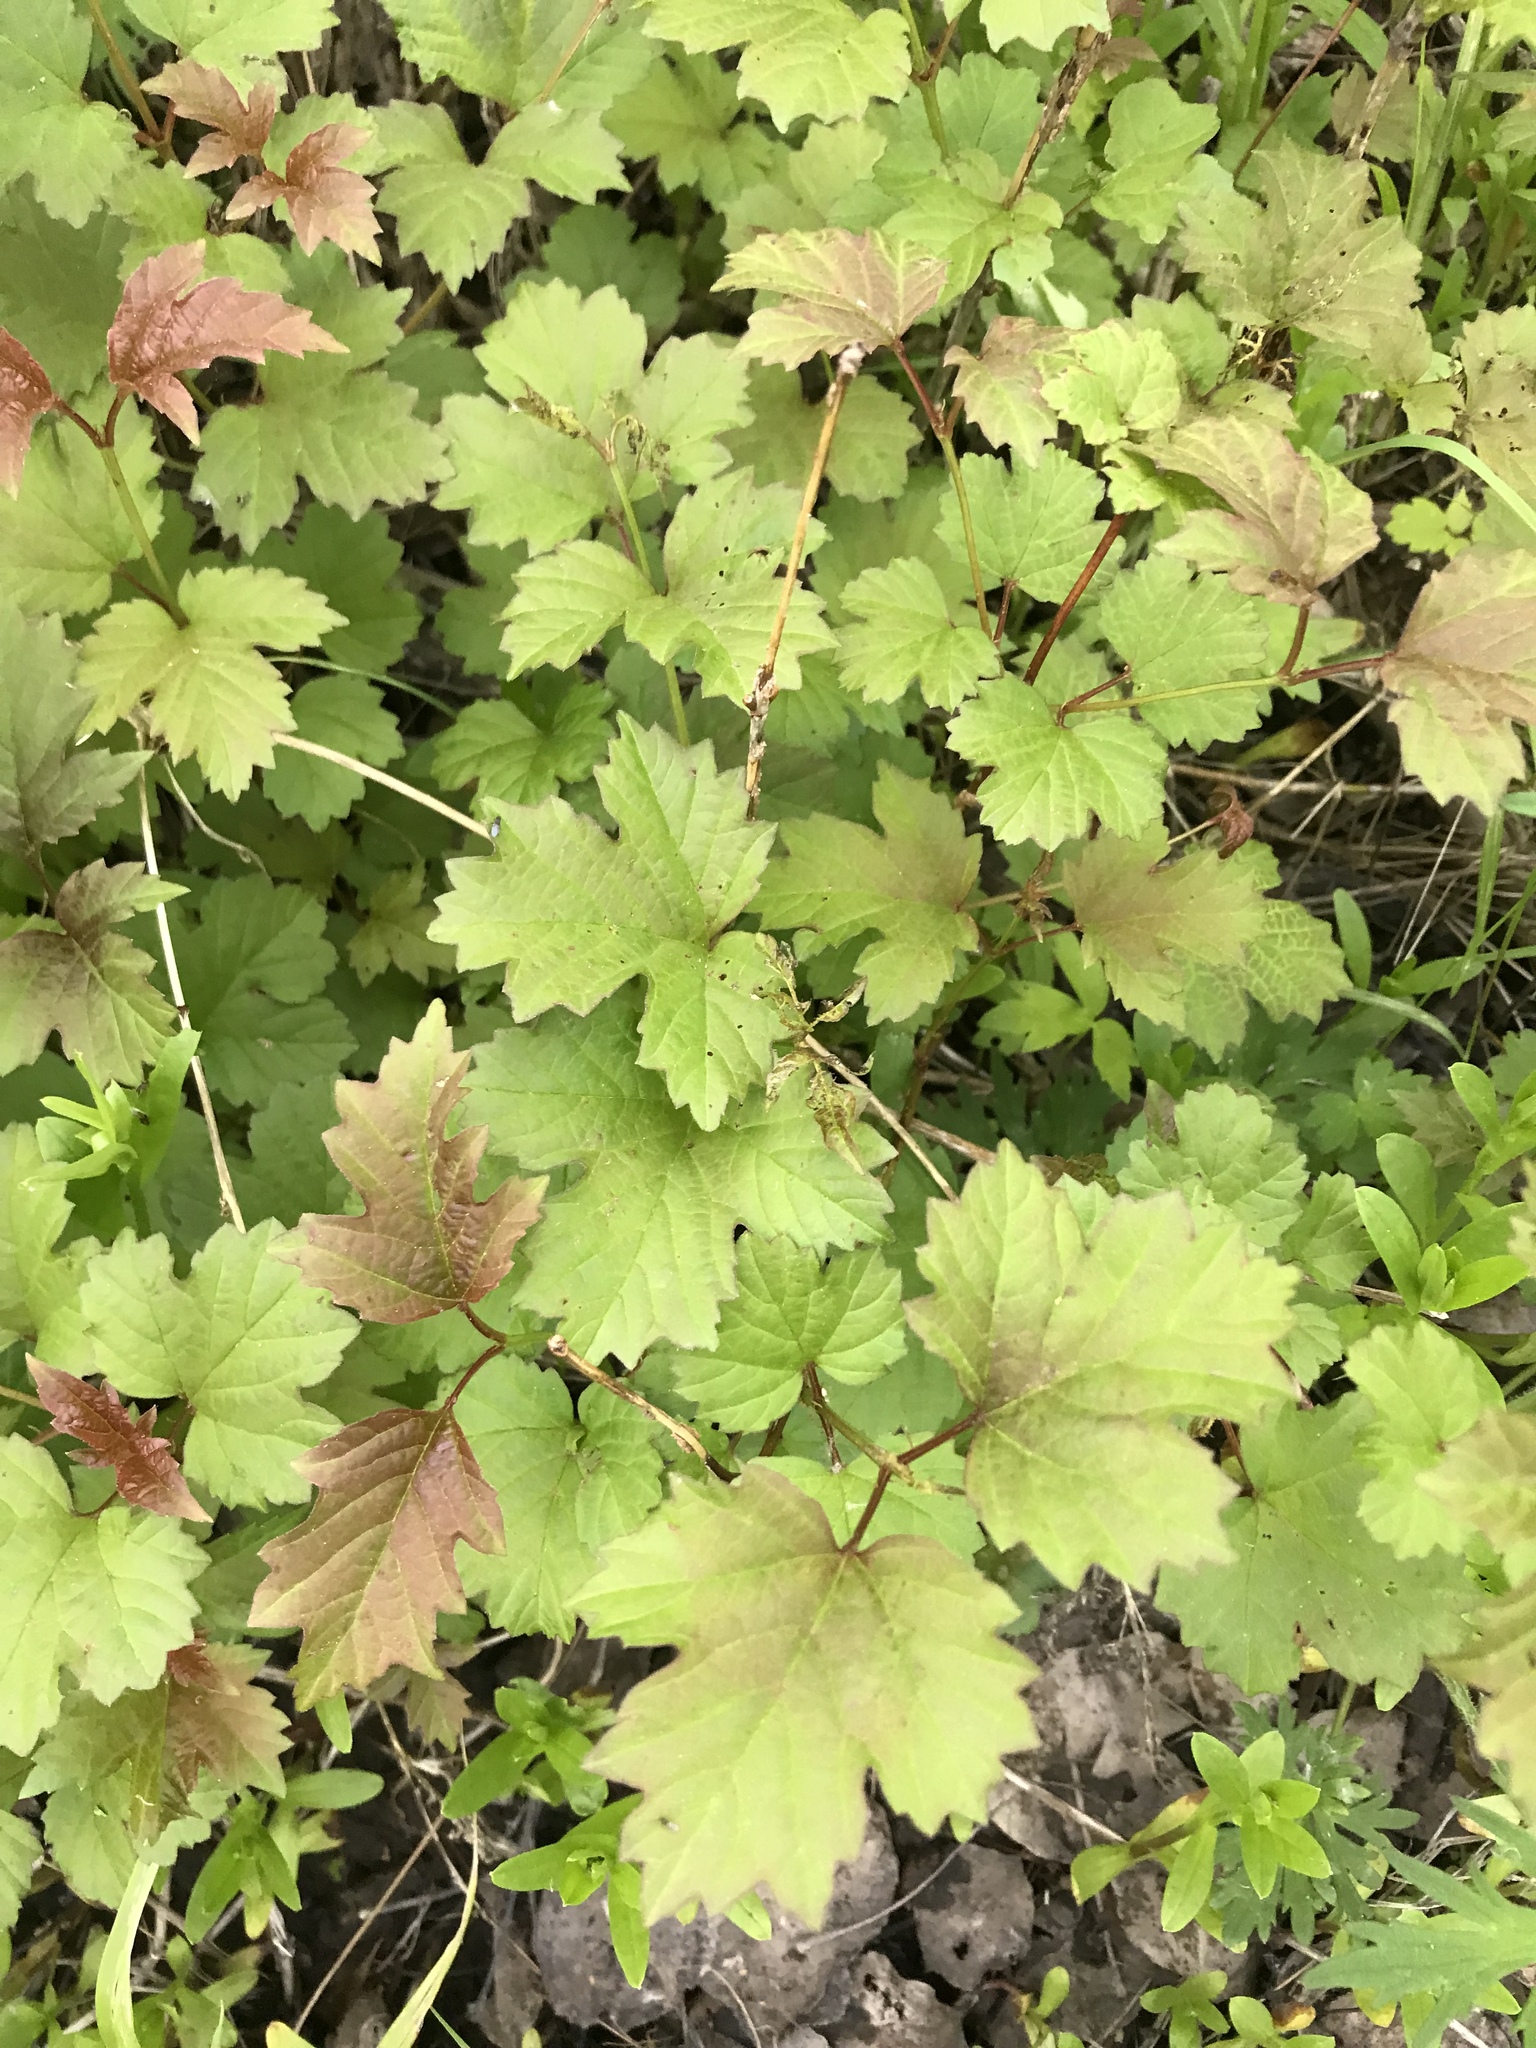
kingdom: Plantae
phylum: Tracheophyta
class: Magnoliopsida
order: Dipsacales
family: Viburnaceae
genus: Viburnum
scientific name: Viburnum opulus
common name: Guelder-rose
